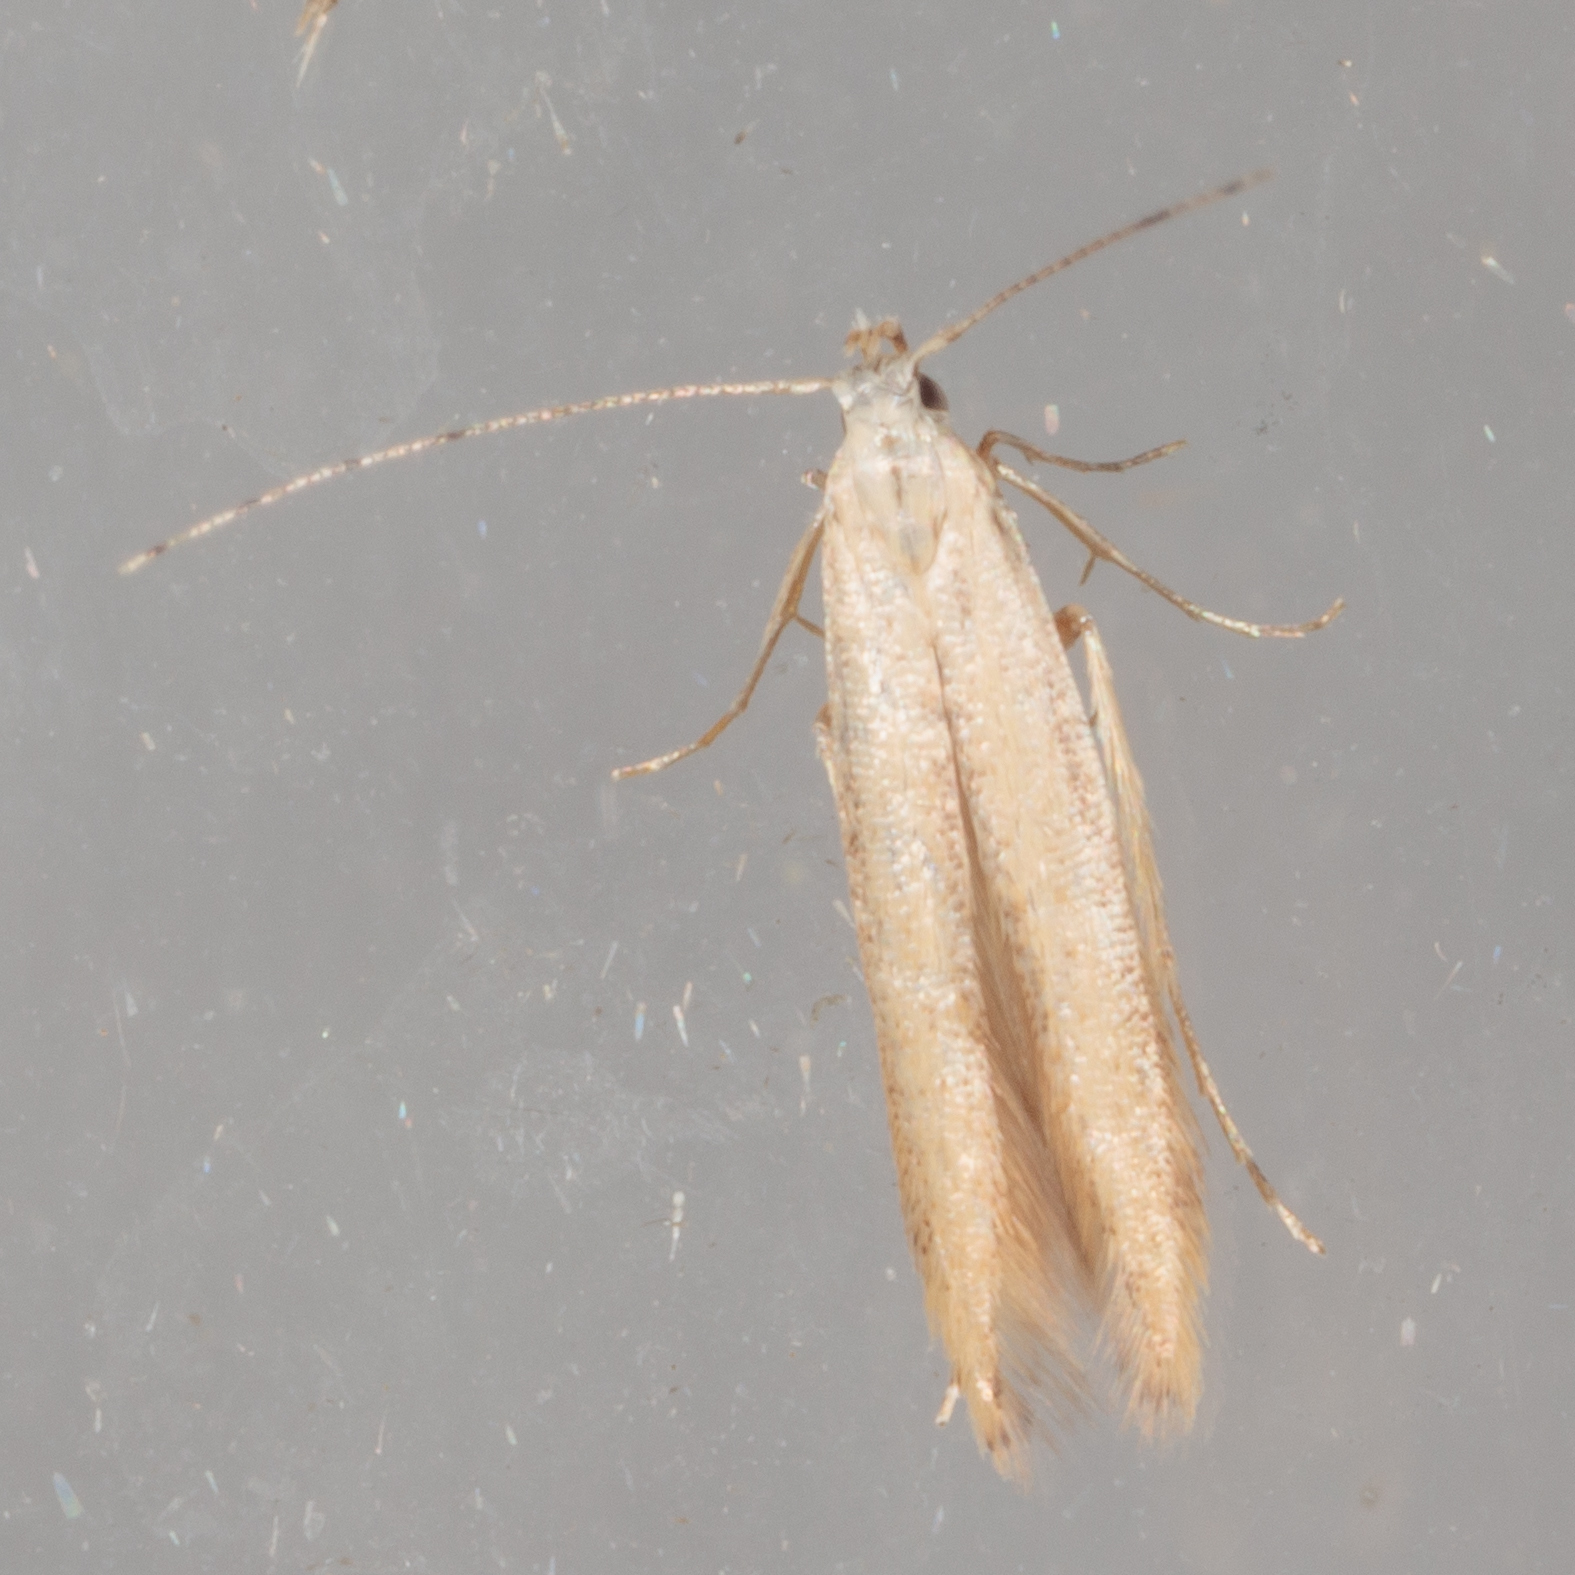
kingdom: Animalia
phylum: Arthropoda
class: Insecta
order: Lepidoptera
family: Gelechiidae
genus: Stereomita
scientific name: Stereomita andropogonis
